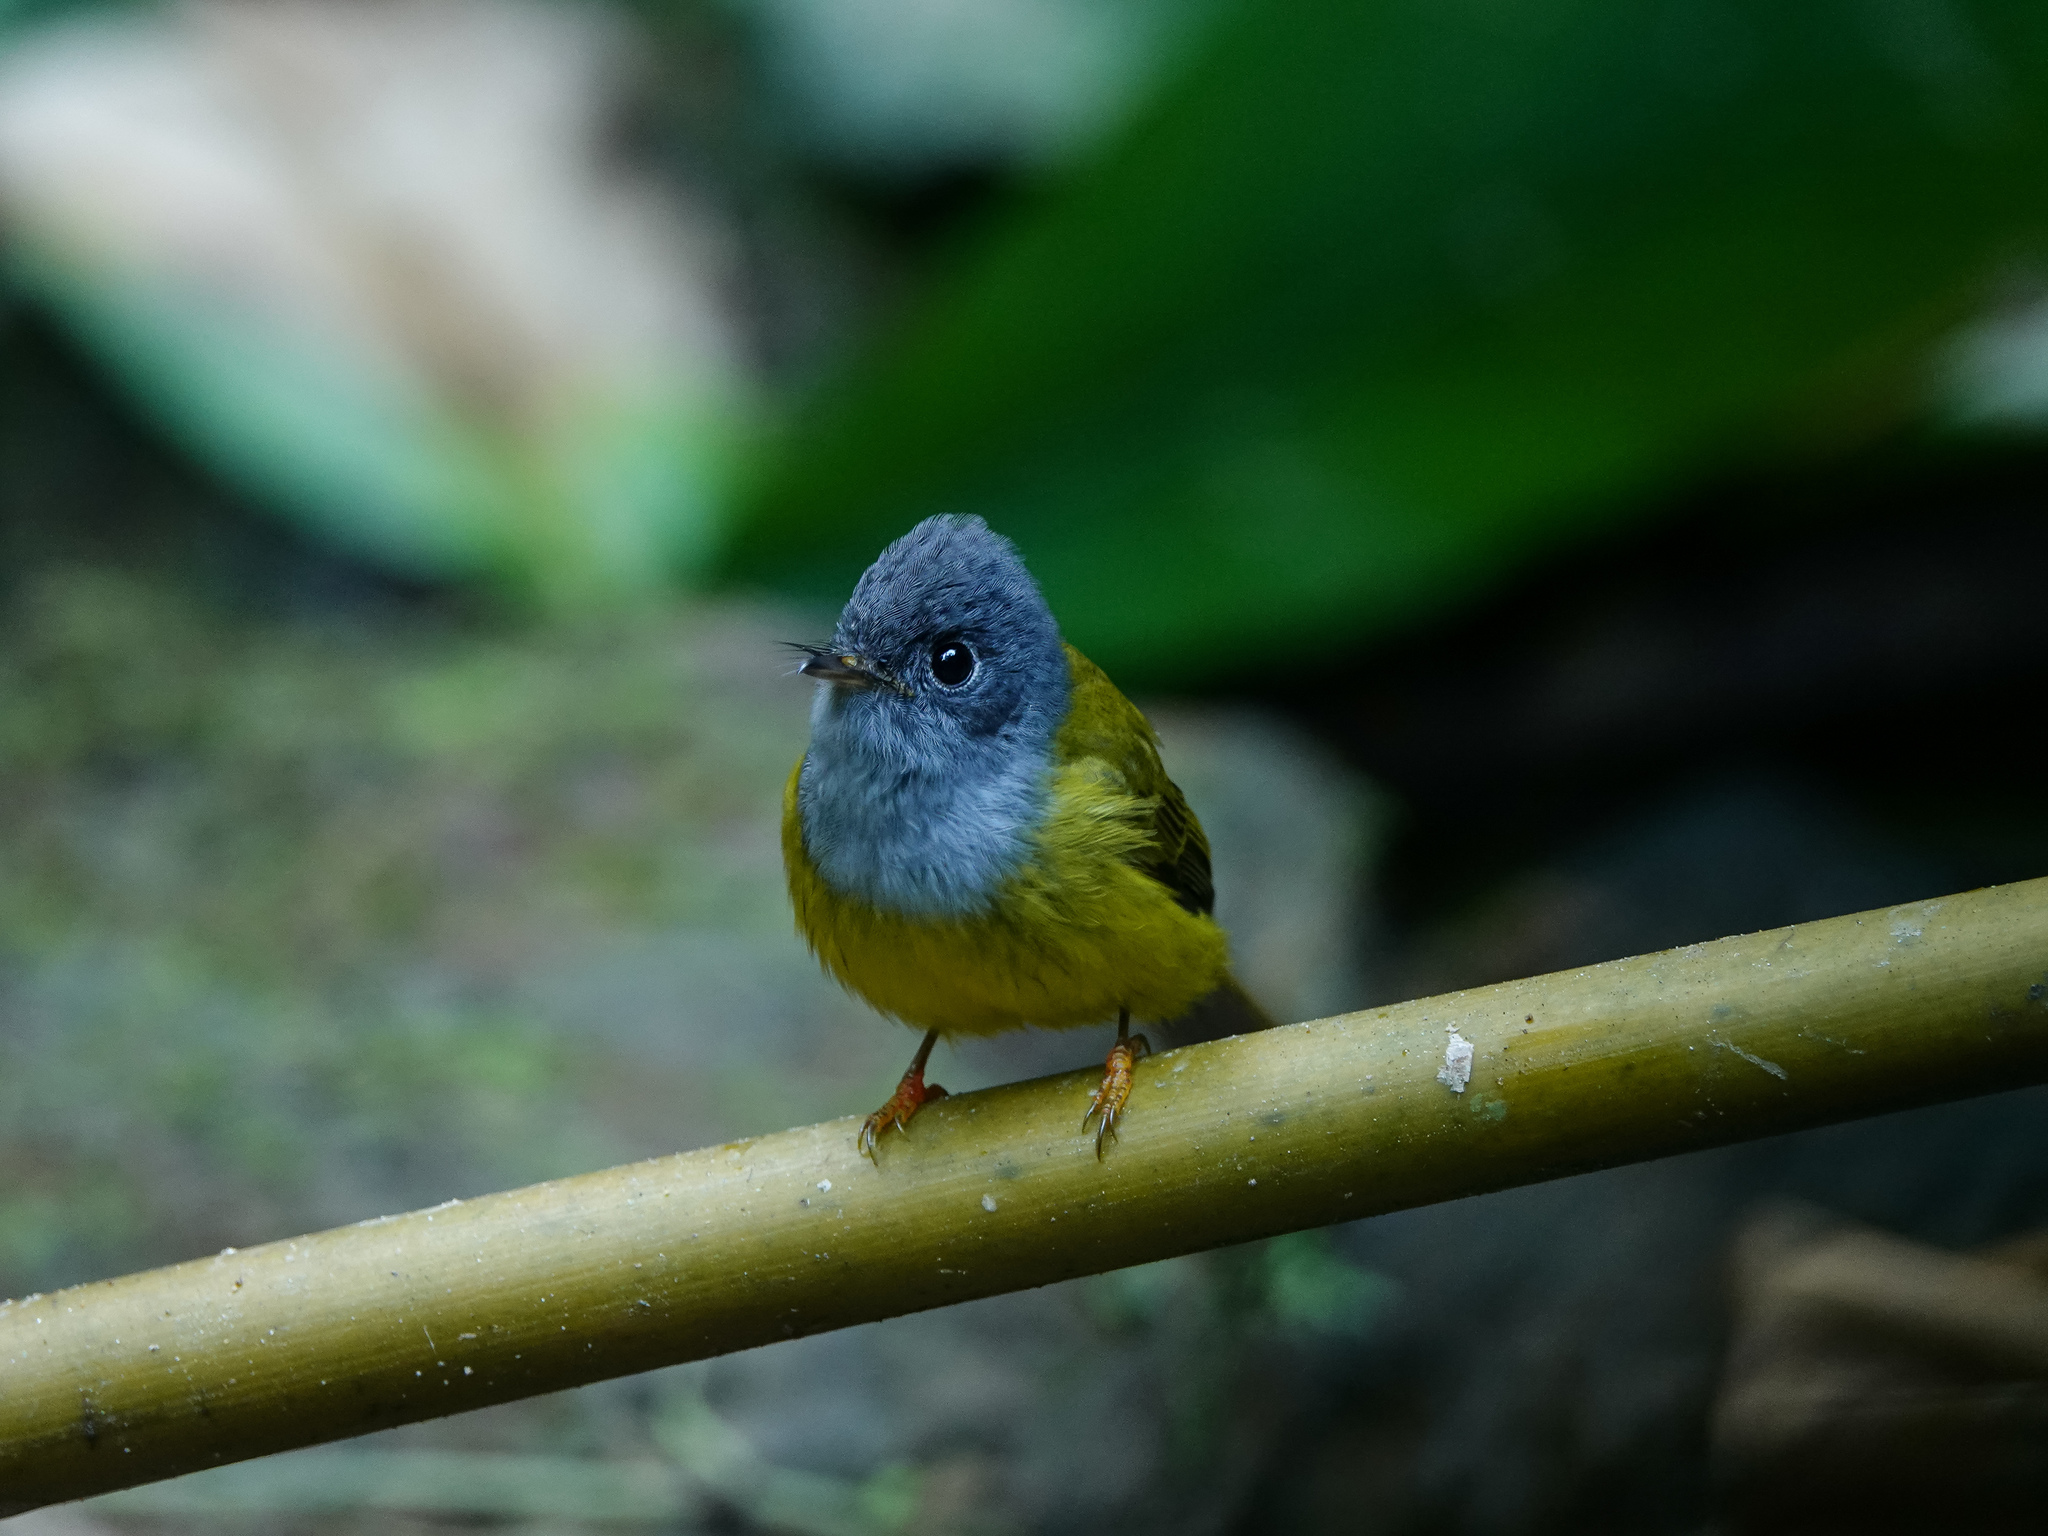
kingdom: Animalia
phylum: Chordata
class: Aves
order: Passeriformes
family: Stenostiridae
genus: Culicicapa
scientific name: Culicicapa ceylonensis
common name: Grey-headed canary-flycatcher
